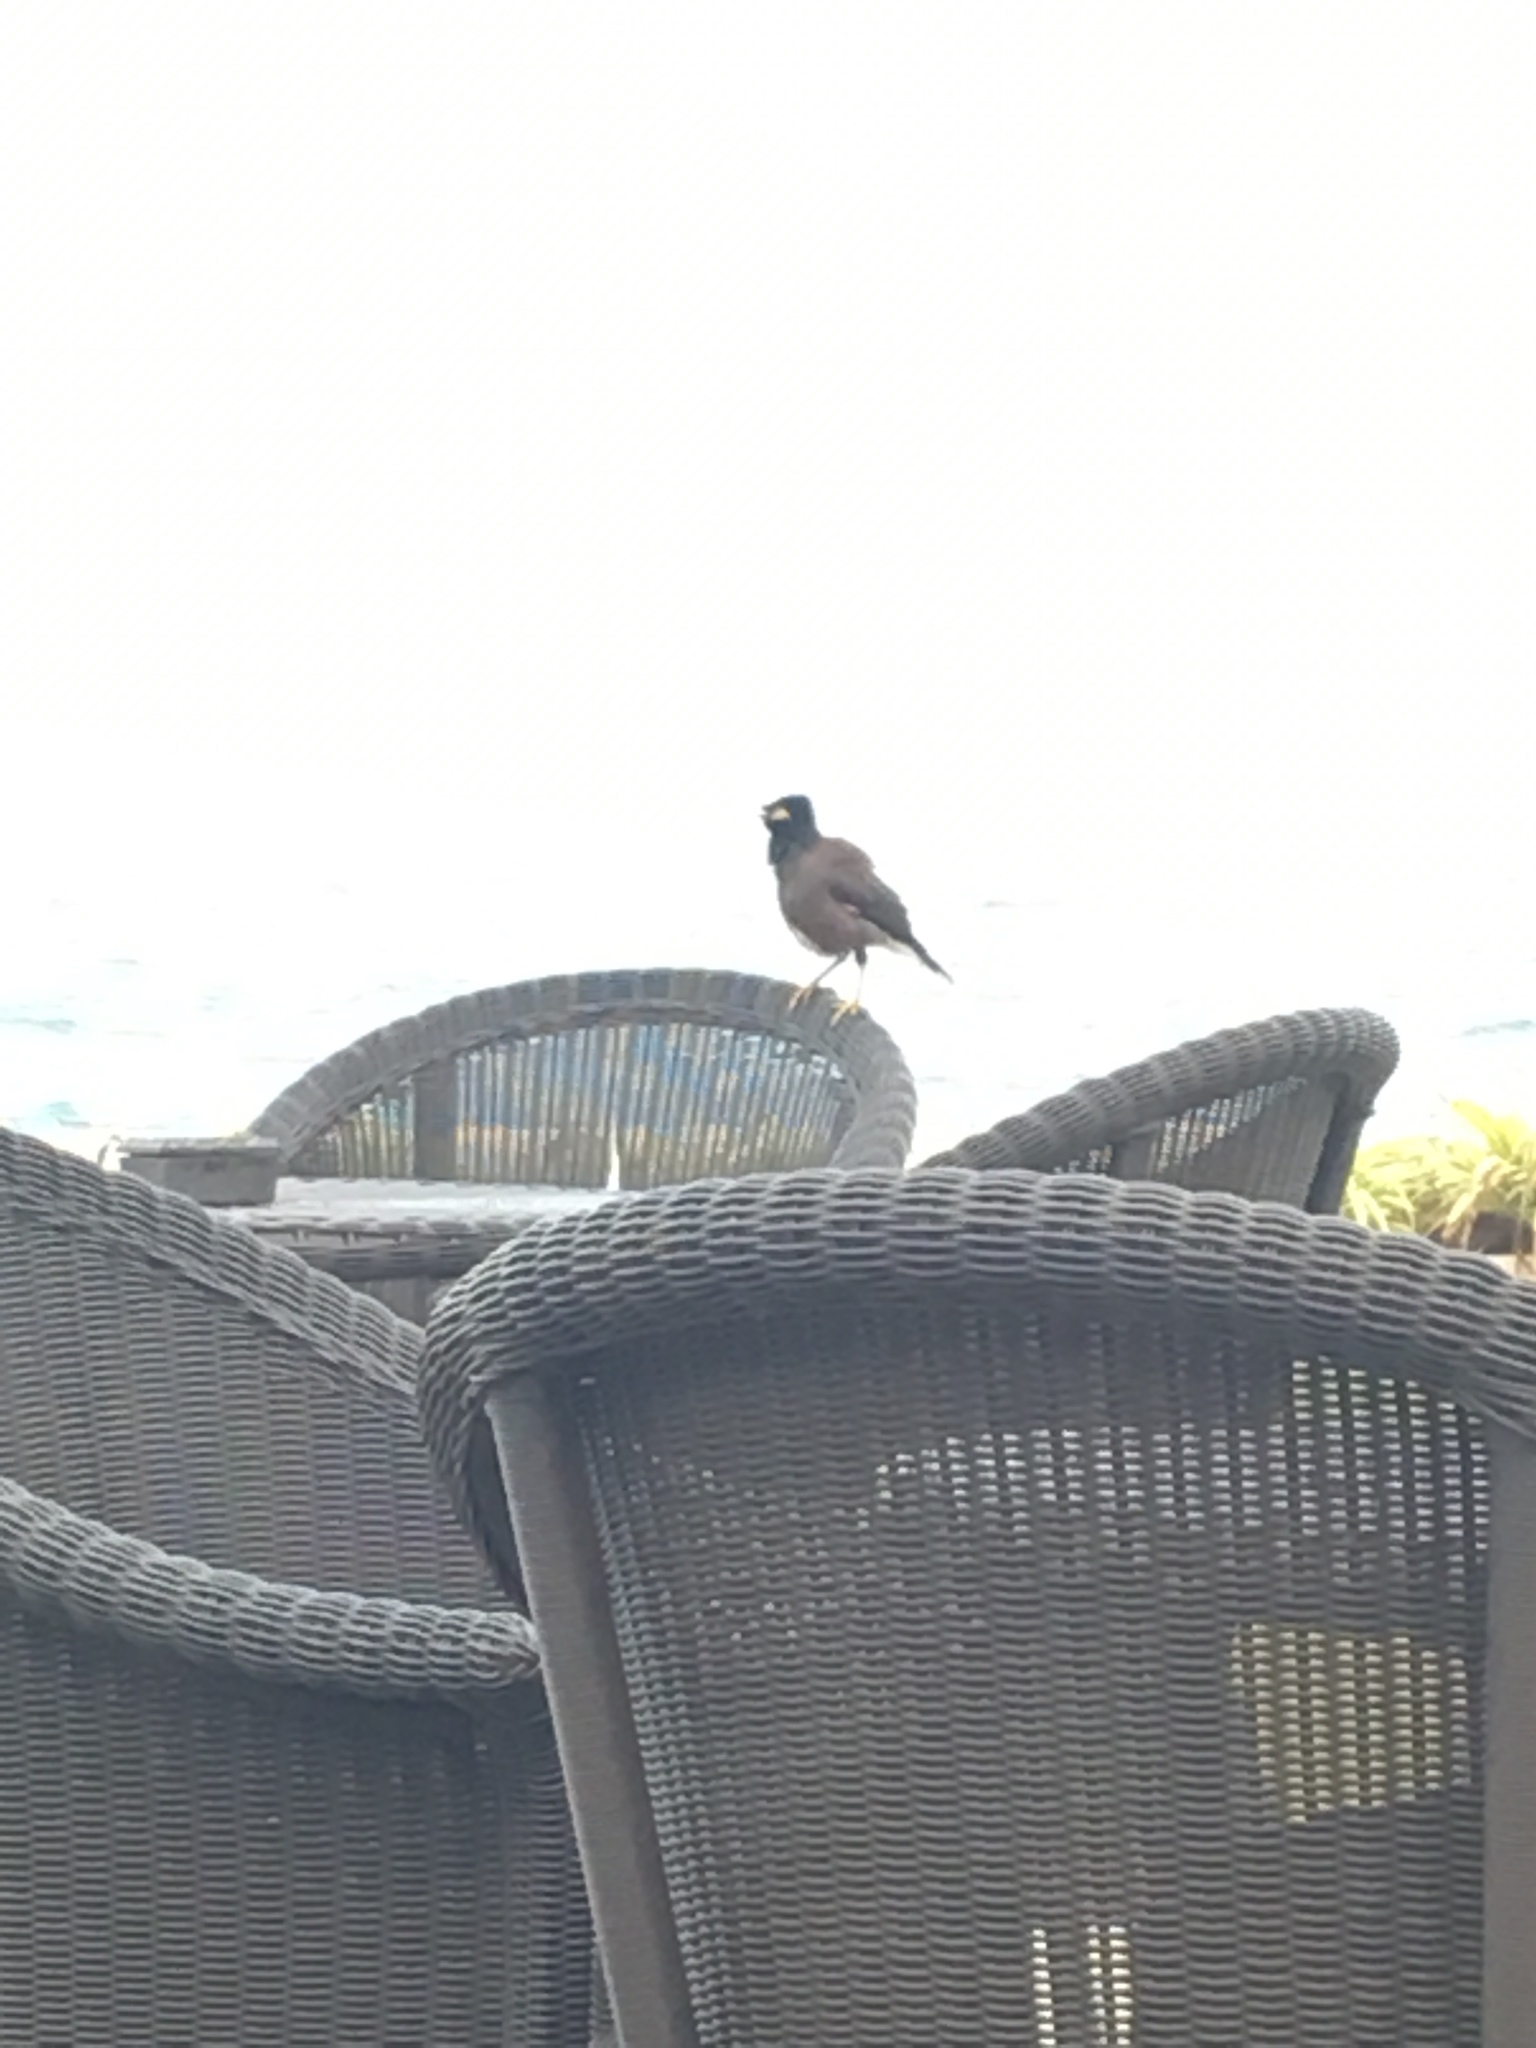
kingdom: Animalia
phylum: Chordata
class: Aves
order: Passeriformes
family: Sturnidae
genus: Acridotheres
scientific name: Acridotheres tristis
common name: Common myna
